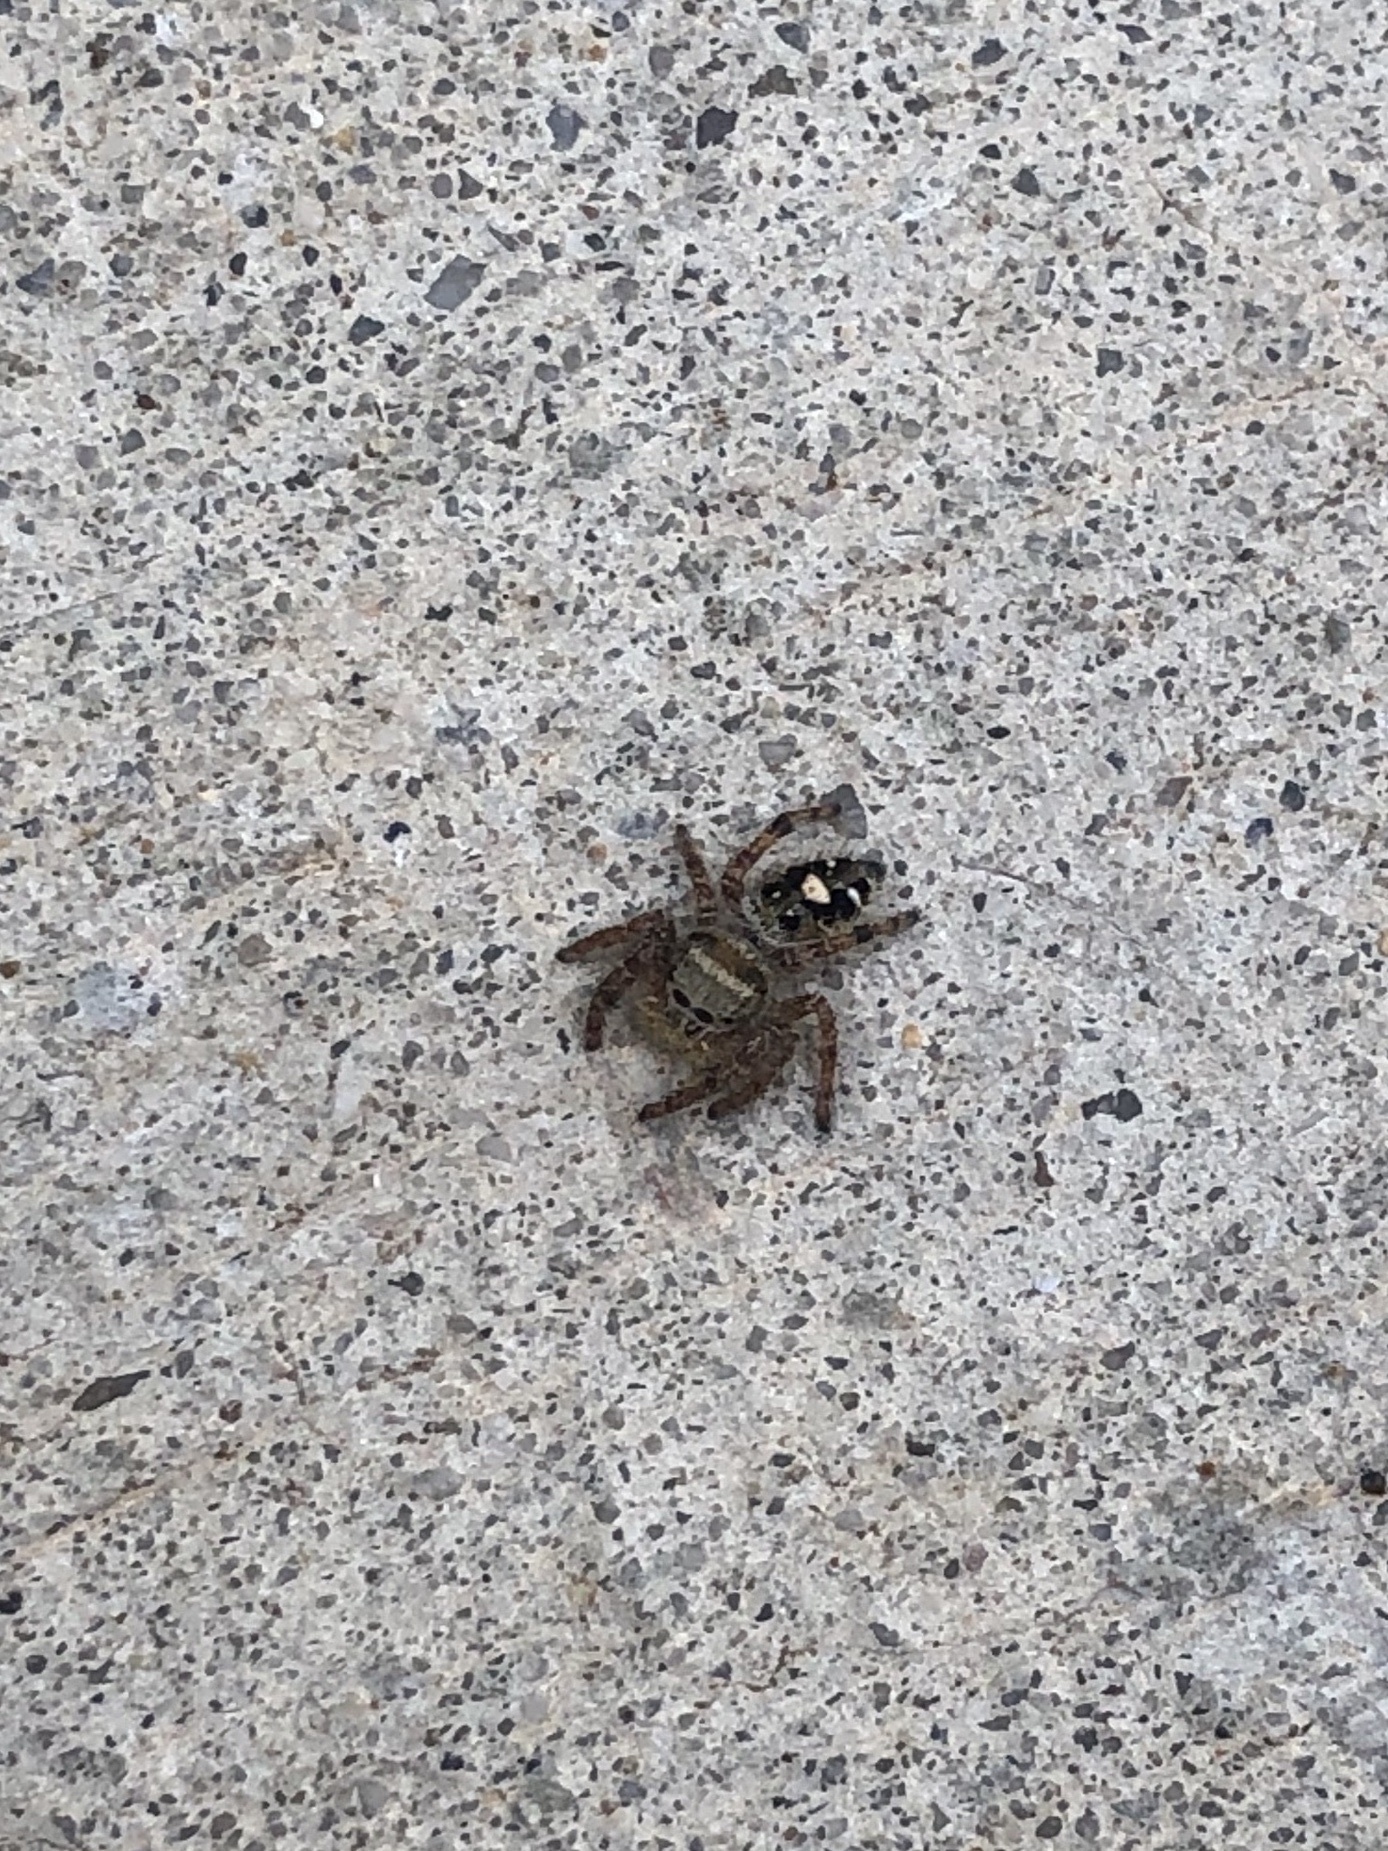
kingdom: Animalia
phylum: Arthropoda
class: Arachnida
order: Araneae
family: Salticidae
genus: Phidippus
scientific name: Phidippus audax
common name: Bold jumper
